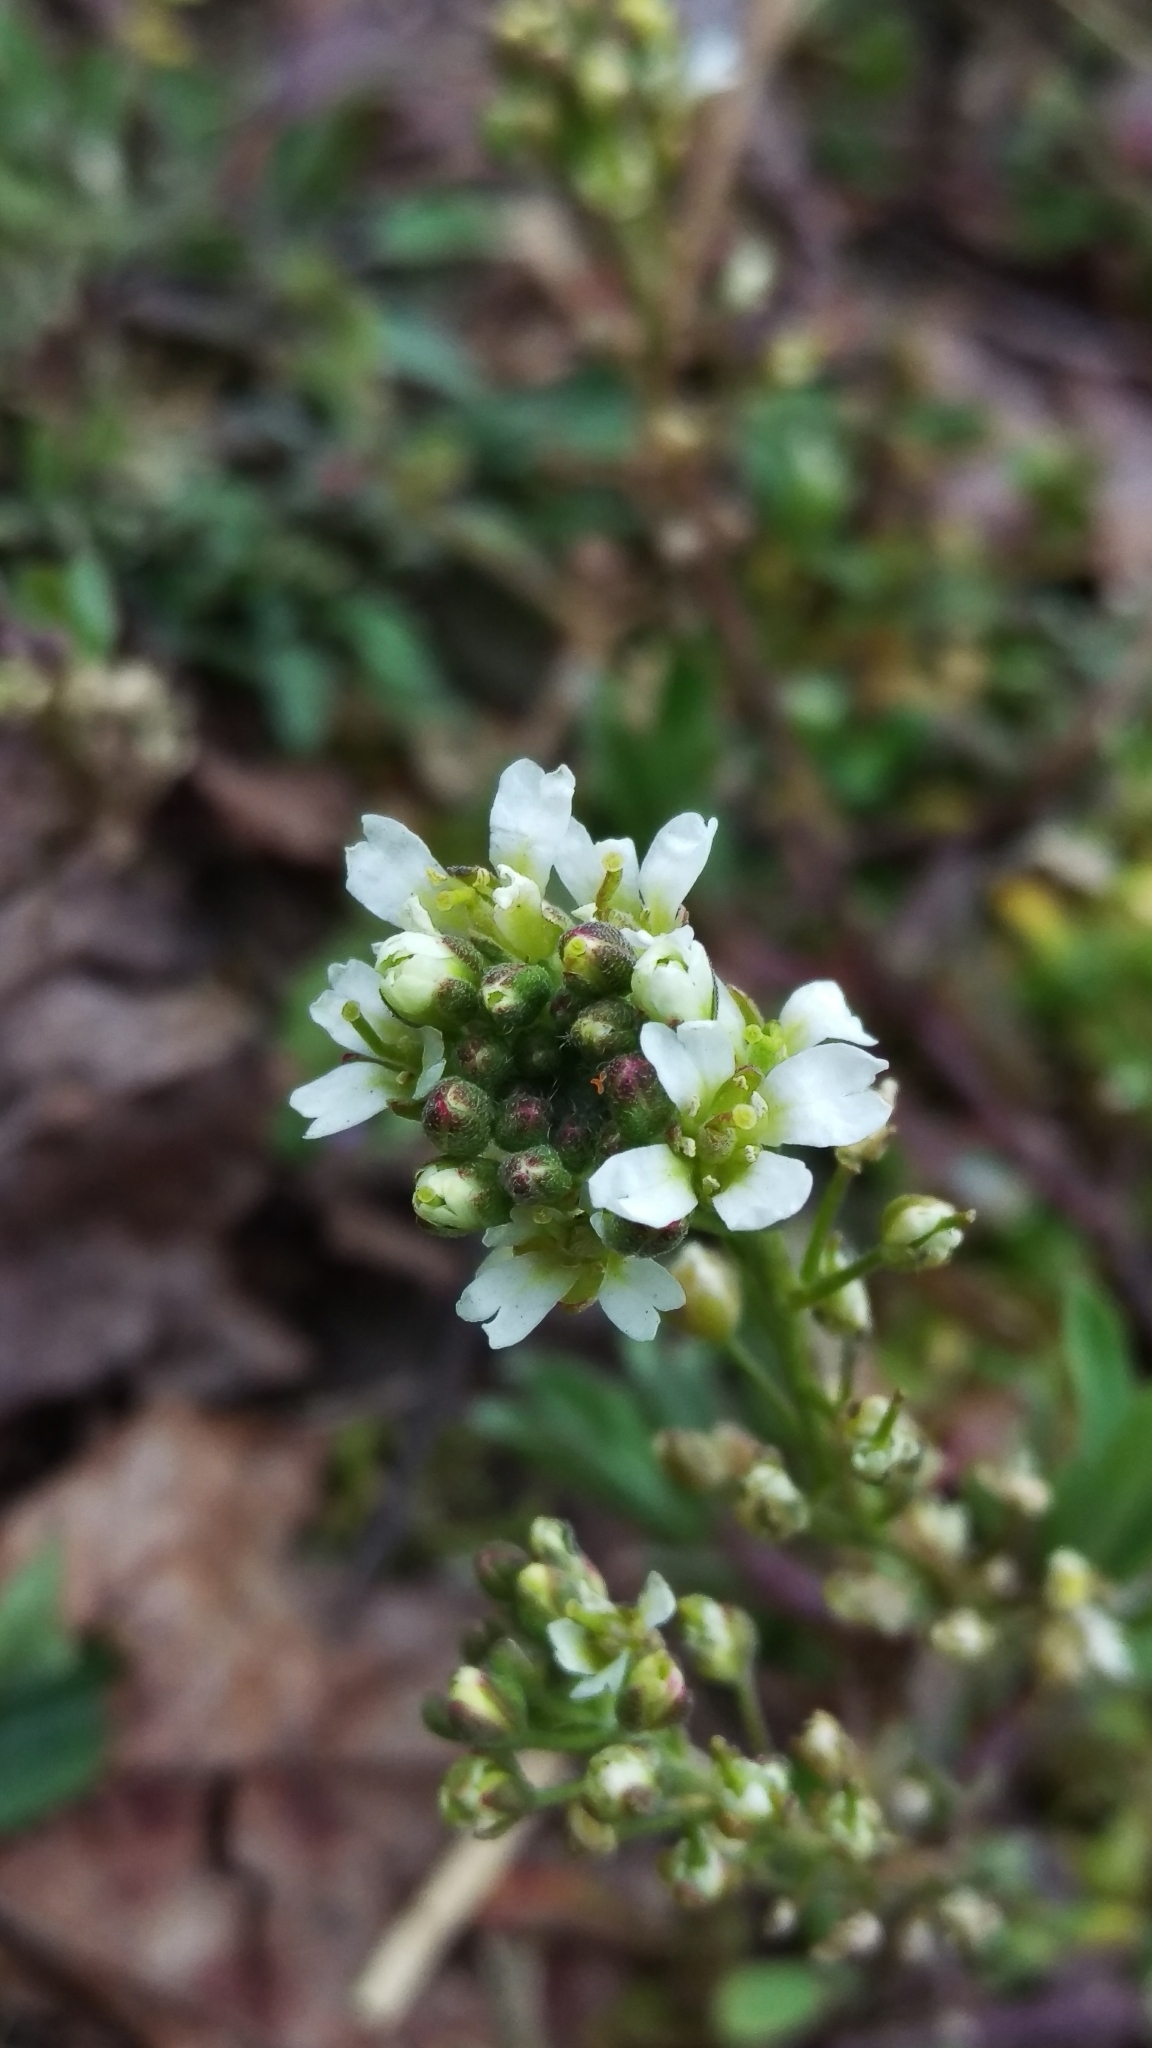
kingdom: Plantae
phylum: Tracheophyta
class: Magnoliopsida
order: Brassicales
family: Brassicaceae
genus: Berteroa
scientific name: Berteroa incana
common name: Hoary alison
